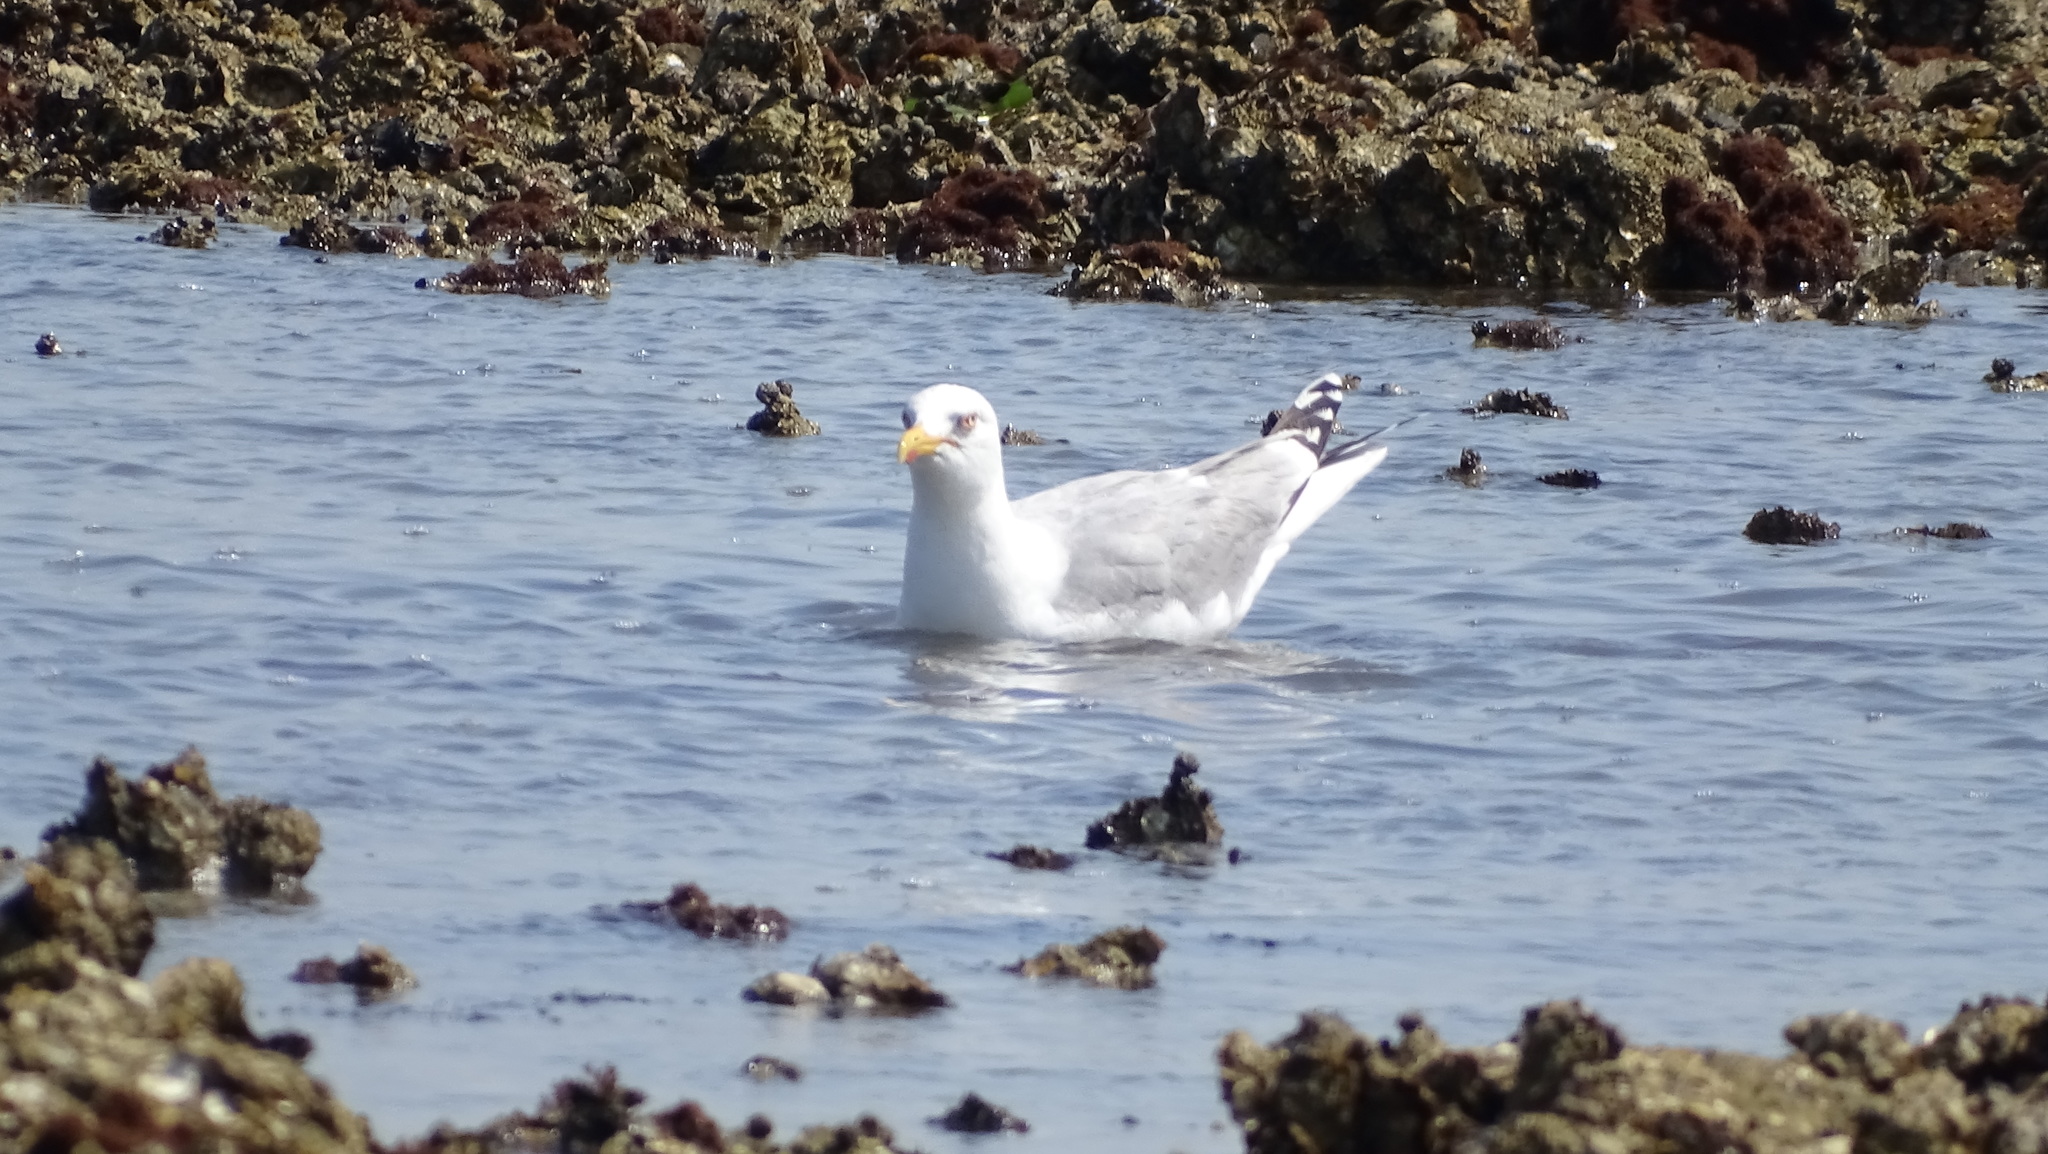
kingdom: Animalia
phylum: Chordata
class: Aves
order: Charadriiformes
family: Laridae
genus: Larus
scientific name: Larus argentatus
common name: Herring gull
